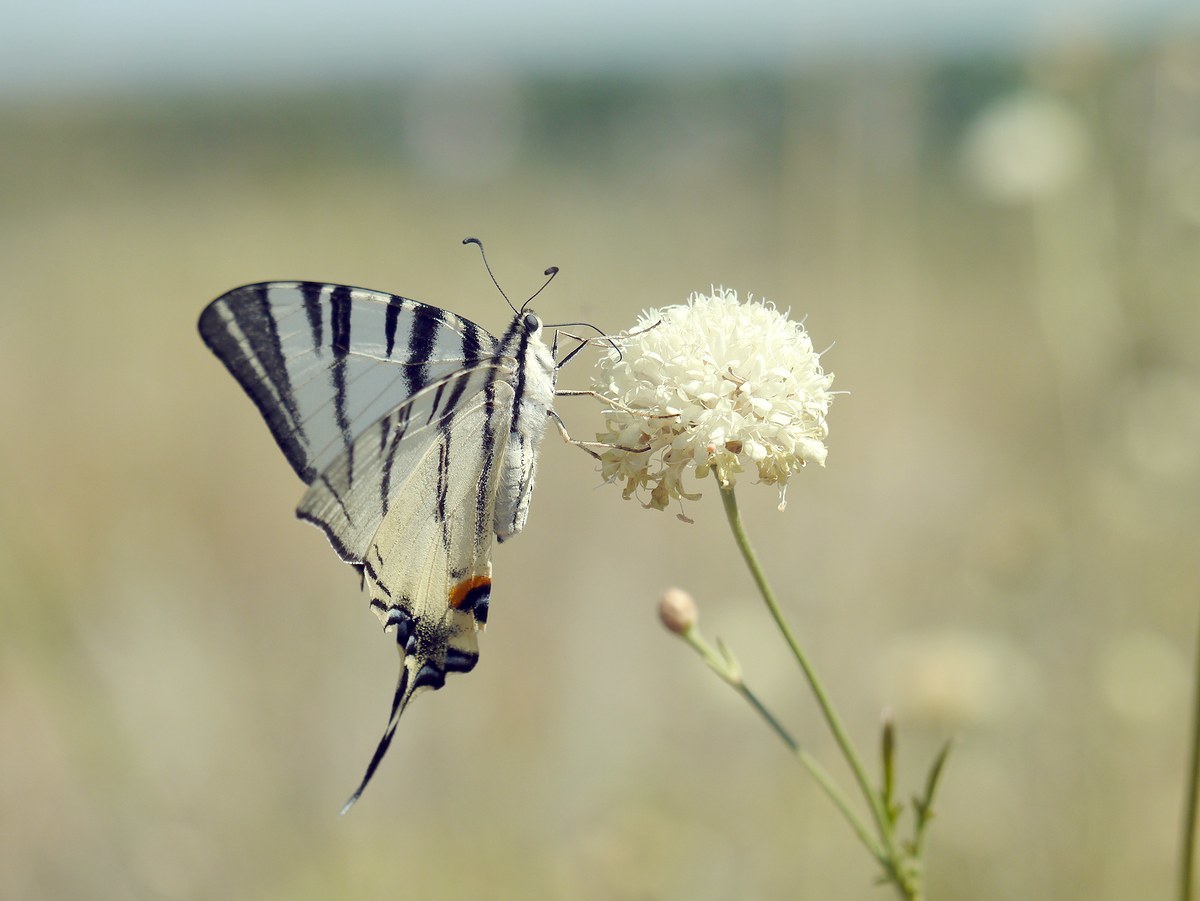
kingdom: Animalia
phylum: Arthropoda
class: Insecta
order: Lepidoptera
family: Papilionidae
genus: Iphiclides
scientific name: Iphiclides podalirius
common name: Scarce swallowtail
